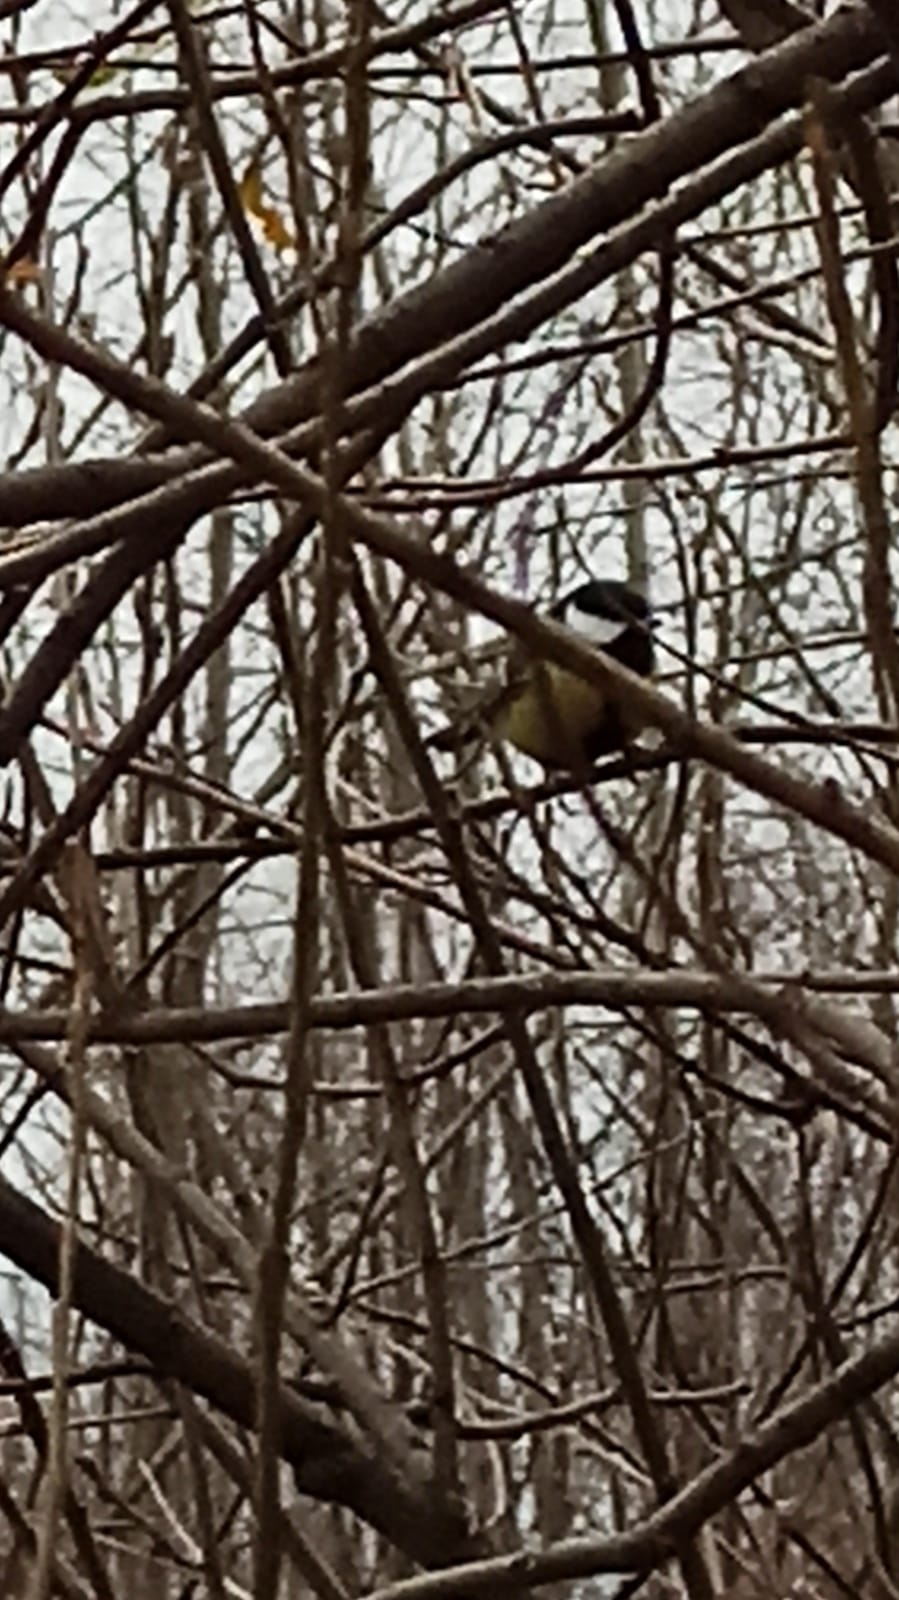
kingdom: Animalia
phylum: Chordata
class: Aves
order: Passeriformes
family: Paridae
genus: Parus
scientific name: Parus major
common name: Great tit
